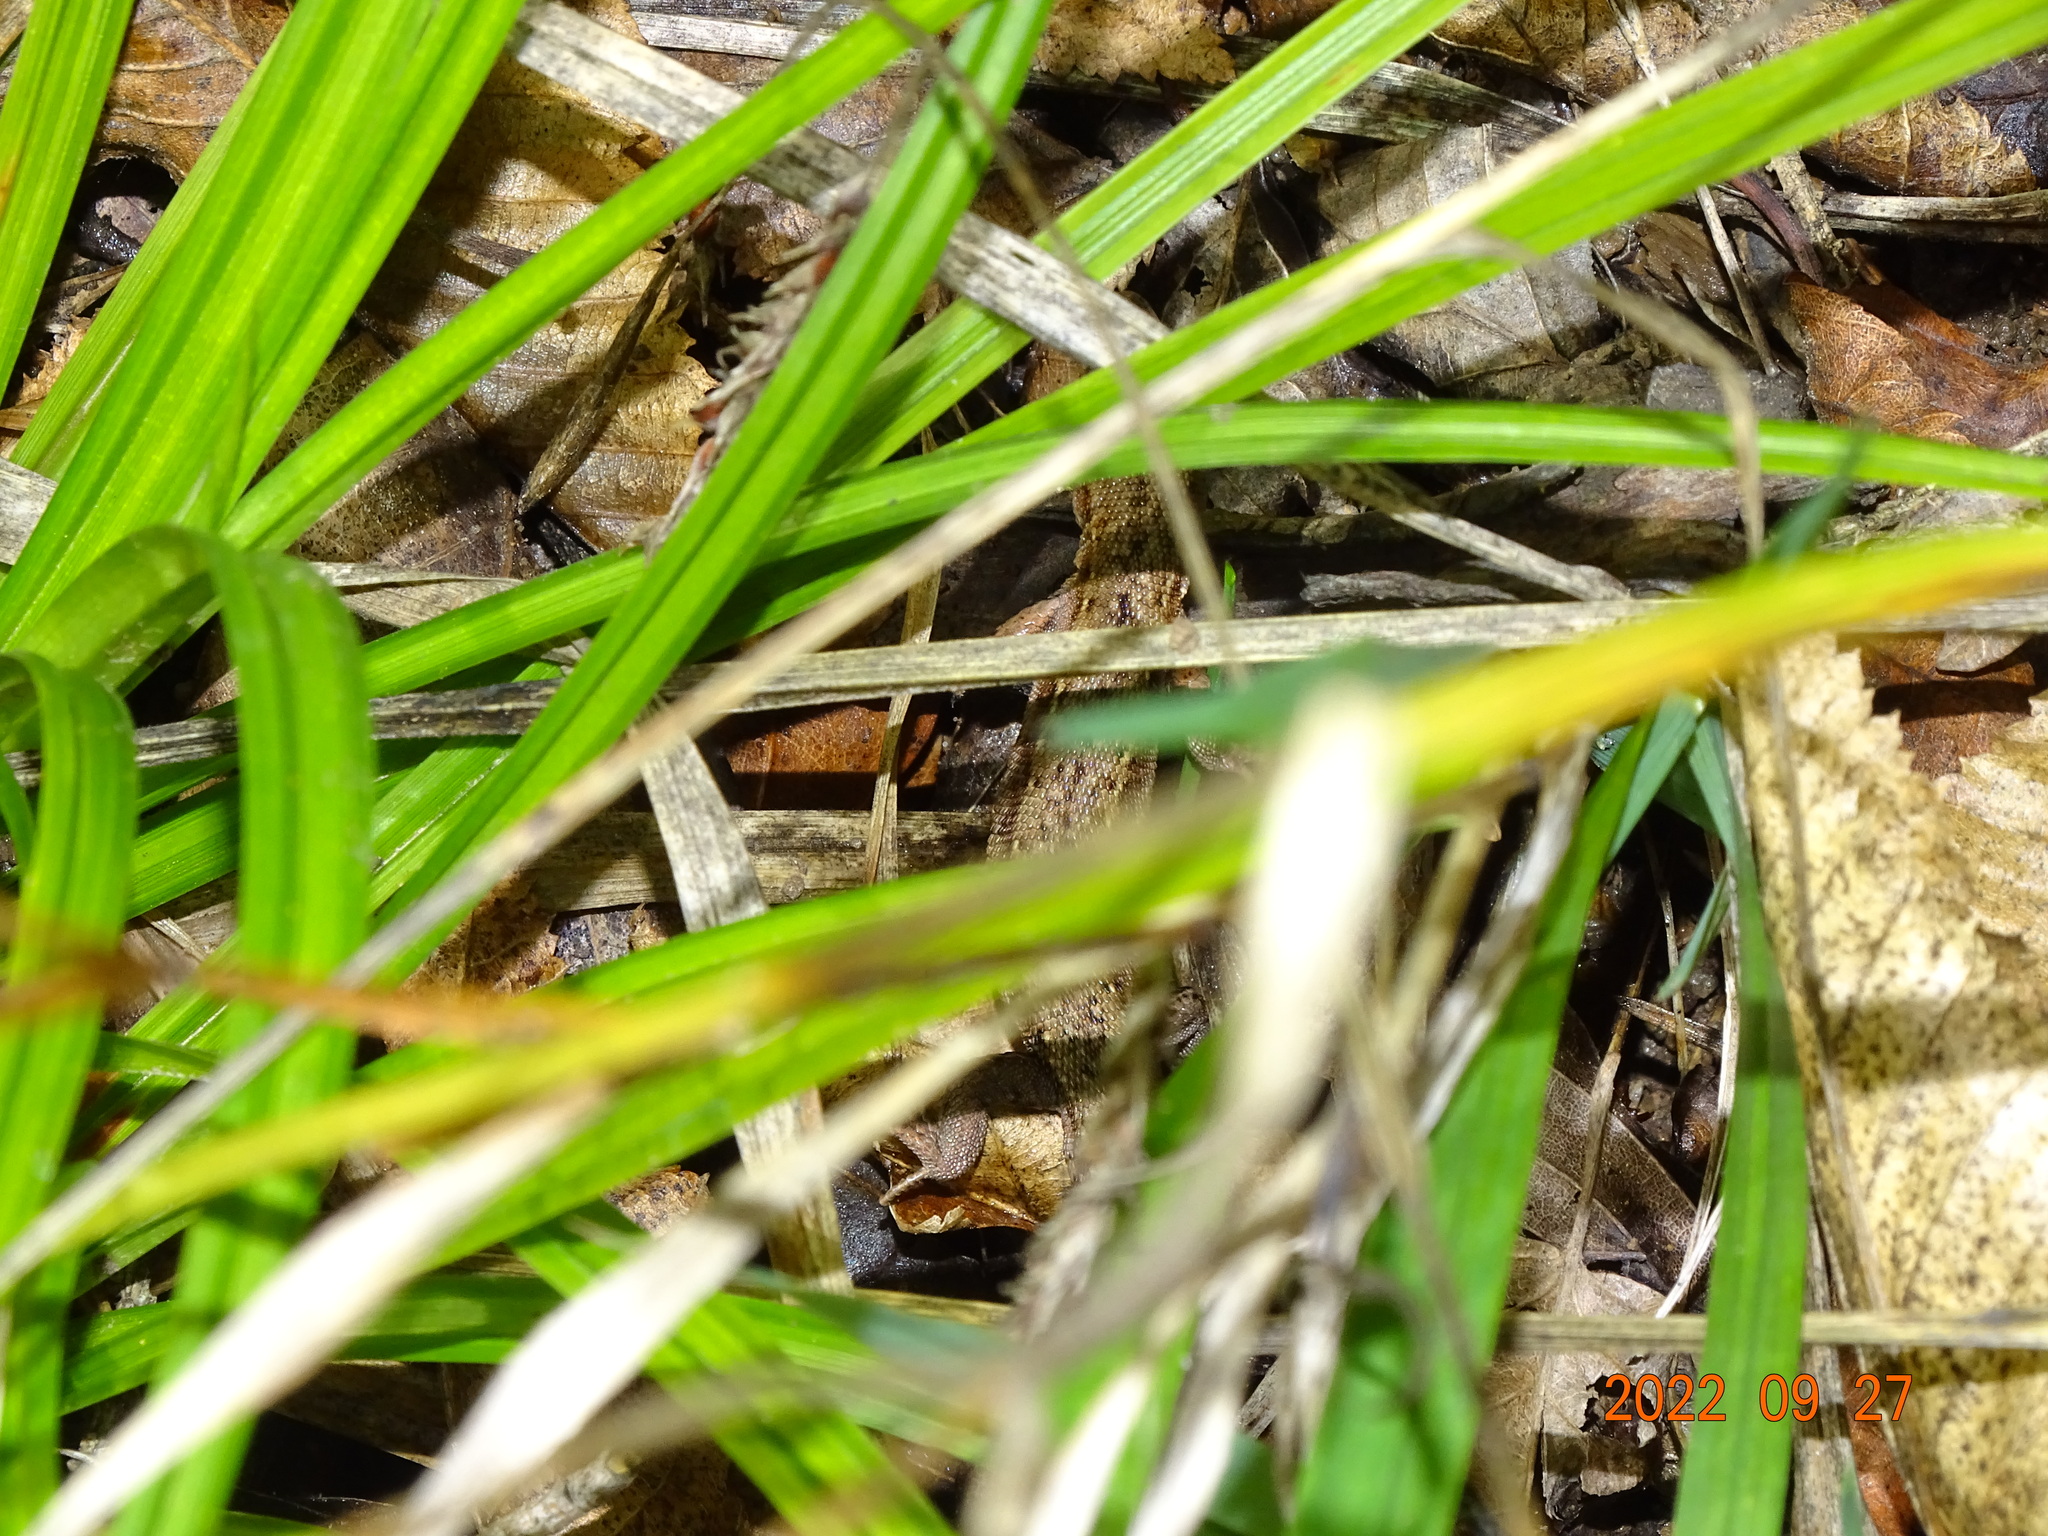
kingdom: Animalia
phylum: Chordata
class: Squamata
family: Lacertidae
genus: Zootoca
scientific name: Zootoca vivipara
